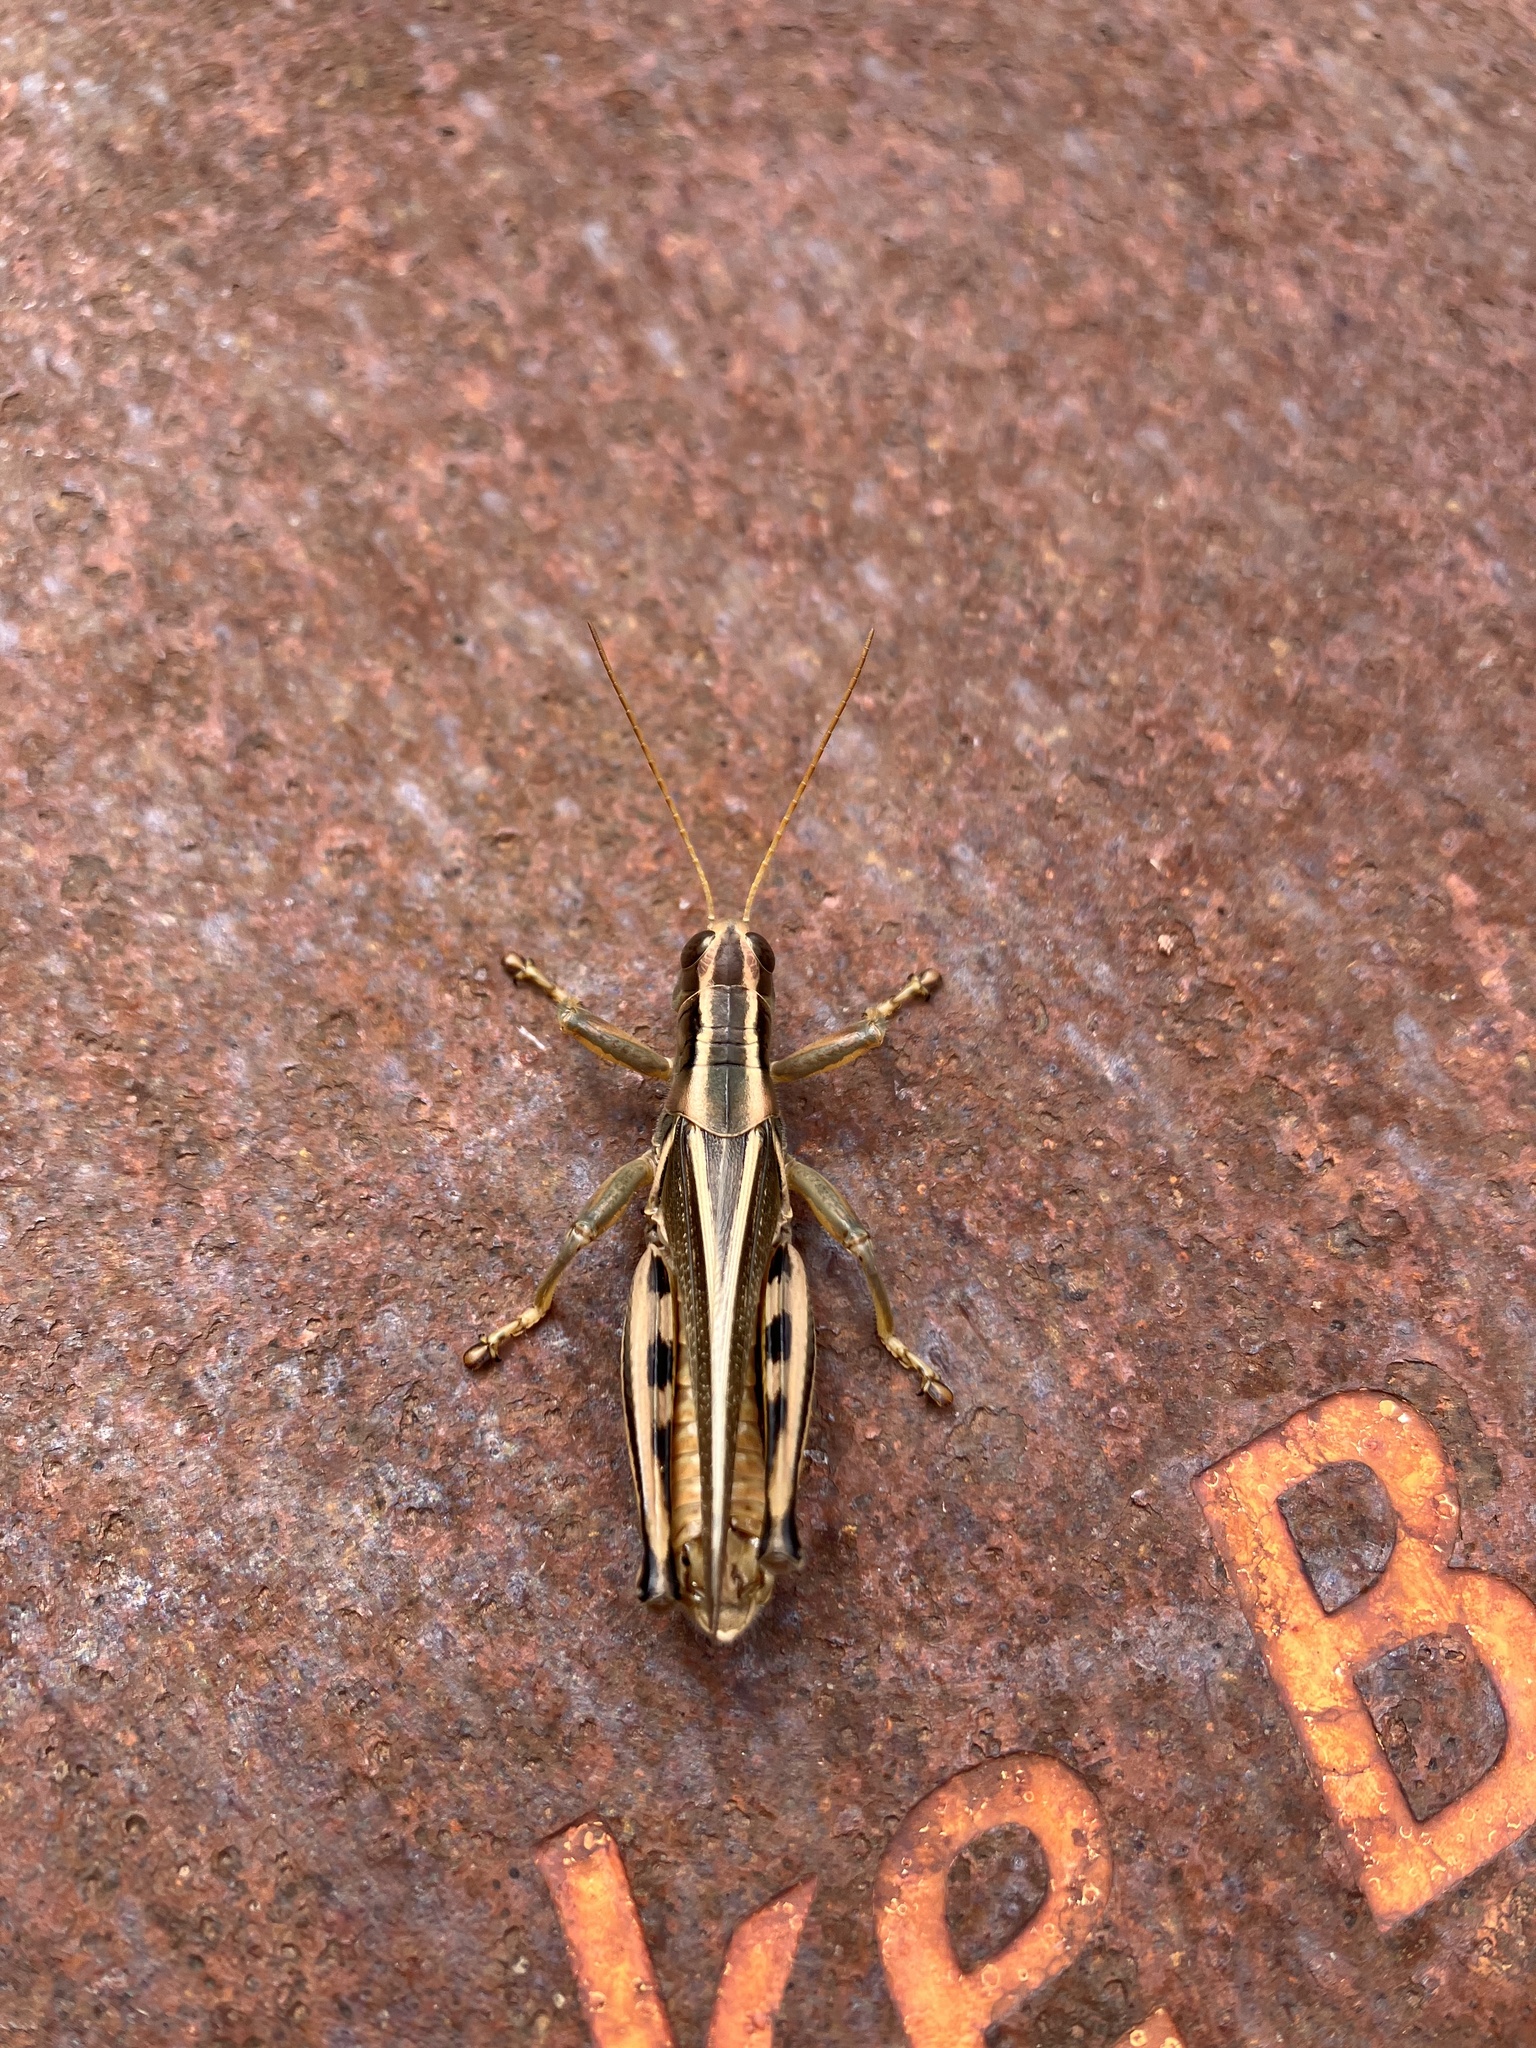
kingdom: Animalia
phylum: Arthropoda
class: Insecta
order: Orthoptera
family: Acrididae
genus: Melanoplus
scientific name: Melanoplus bivittatus
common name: Two-striped grasshopper
